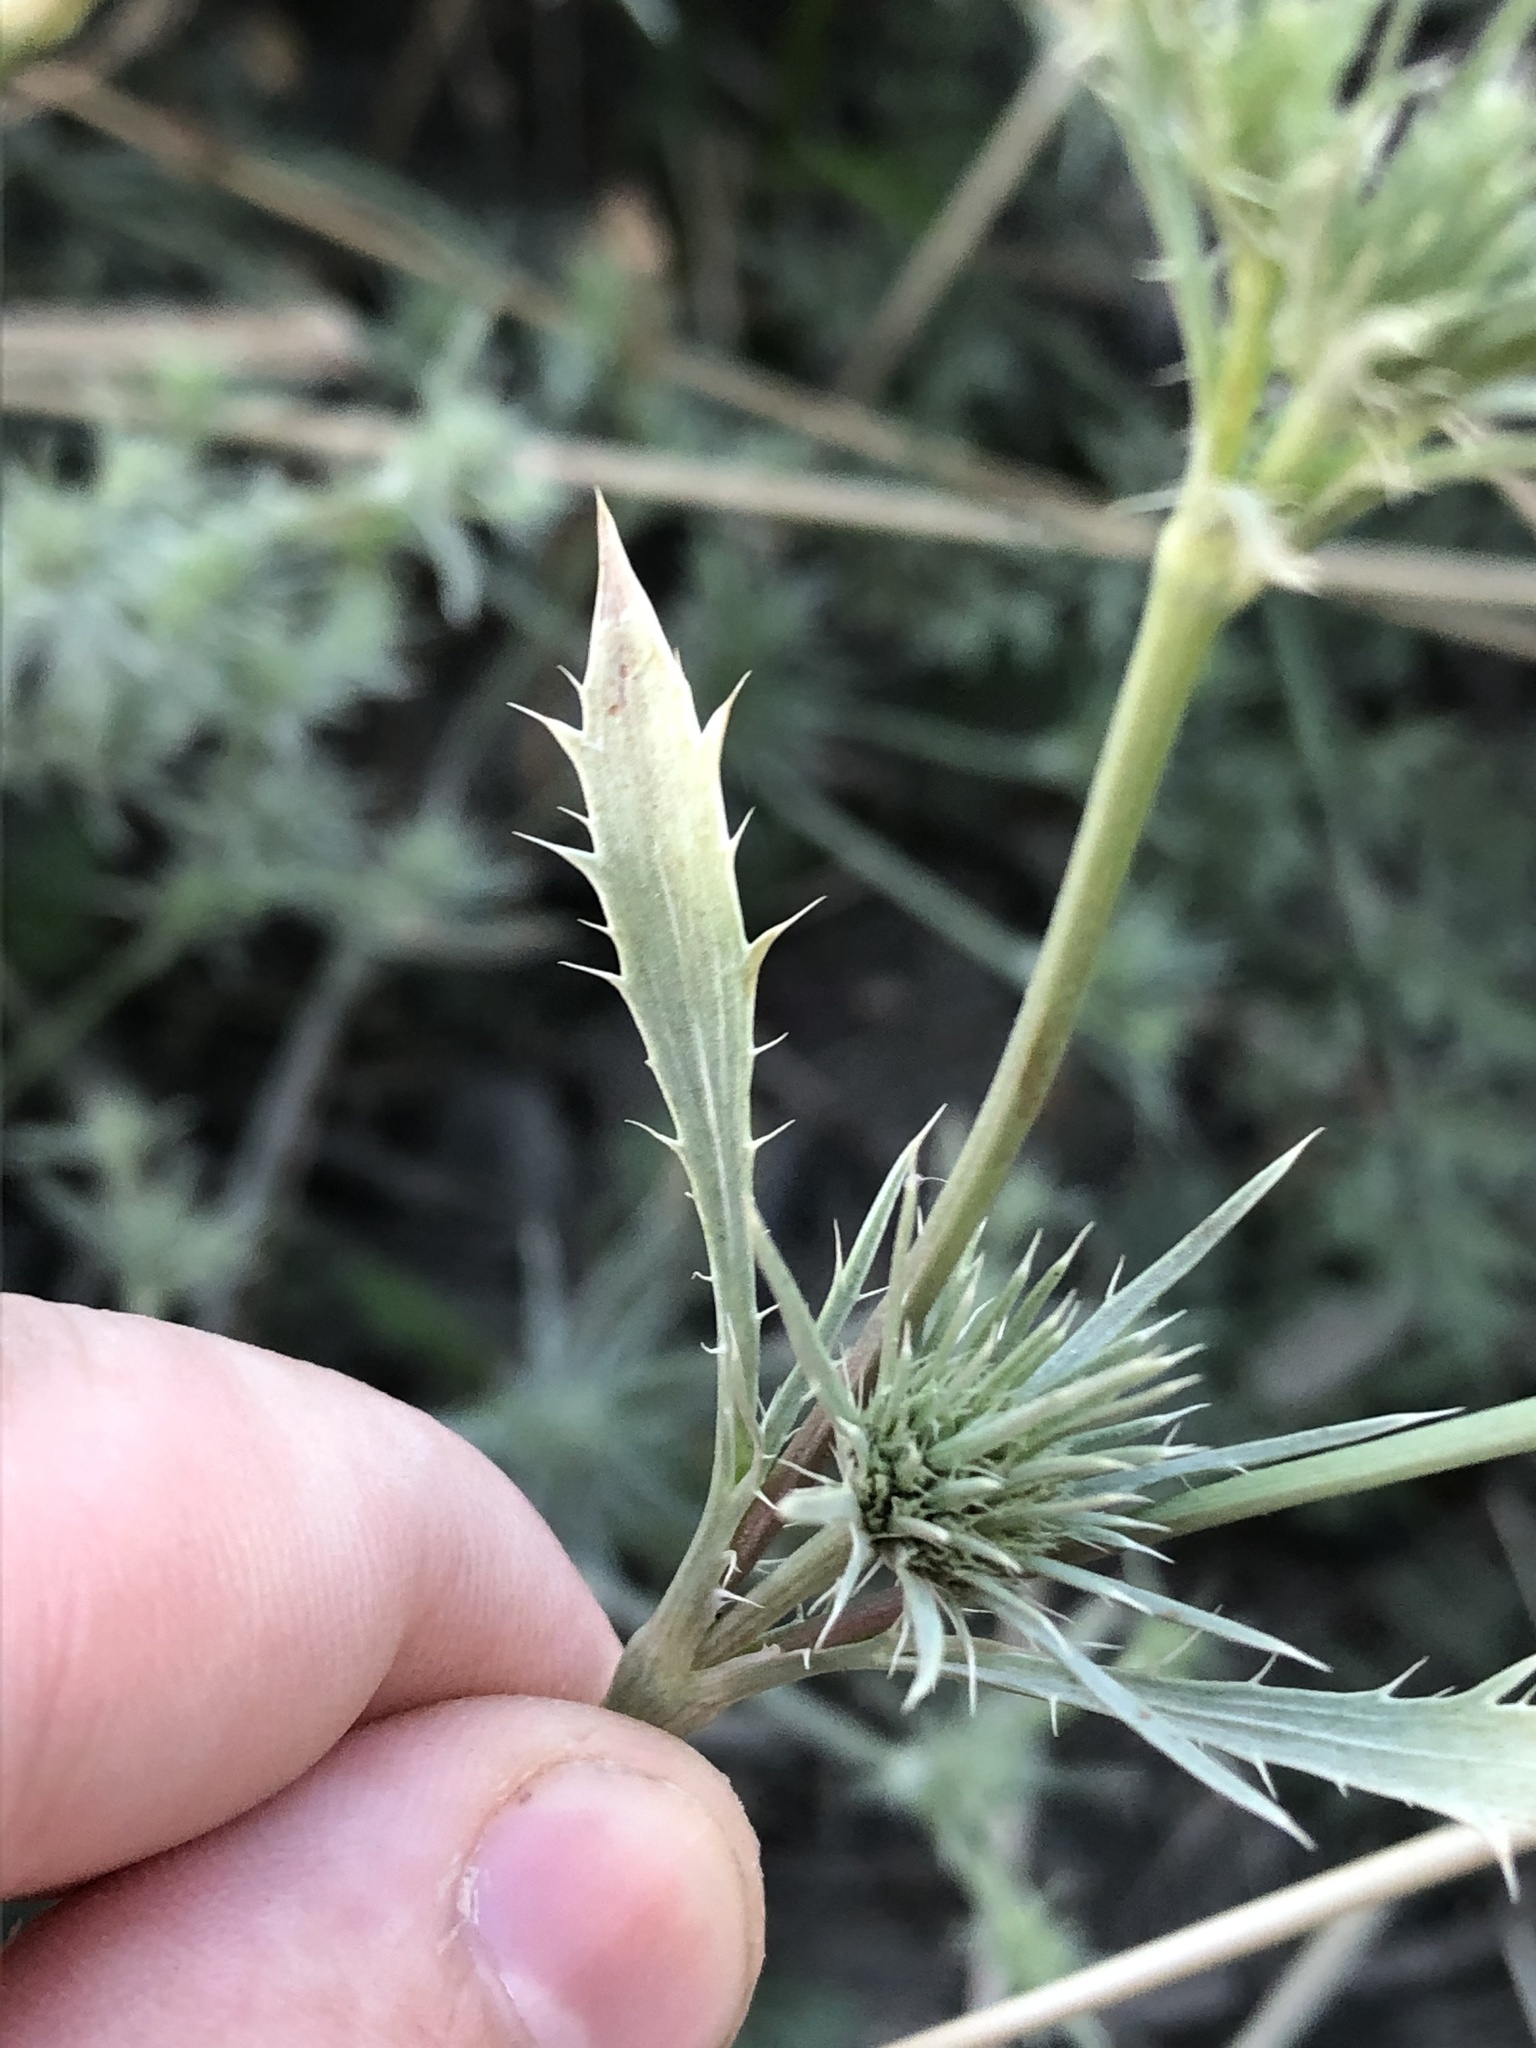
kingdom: Plantae
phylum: Tracheophyta
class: Magnoliopsida
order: Apiales
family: Apiaceae
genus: Eryngium
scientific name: Eryngium petiolatum
